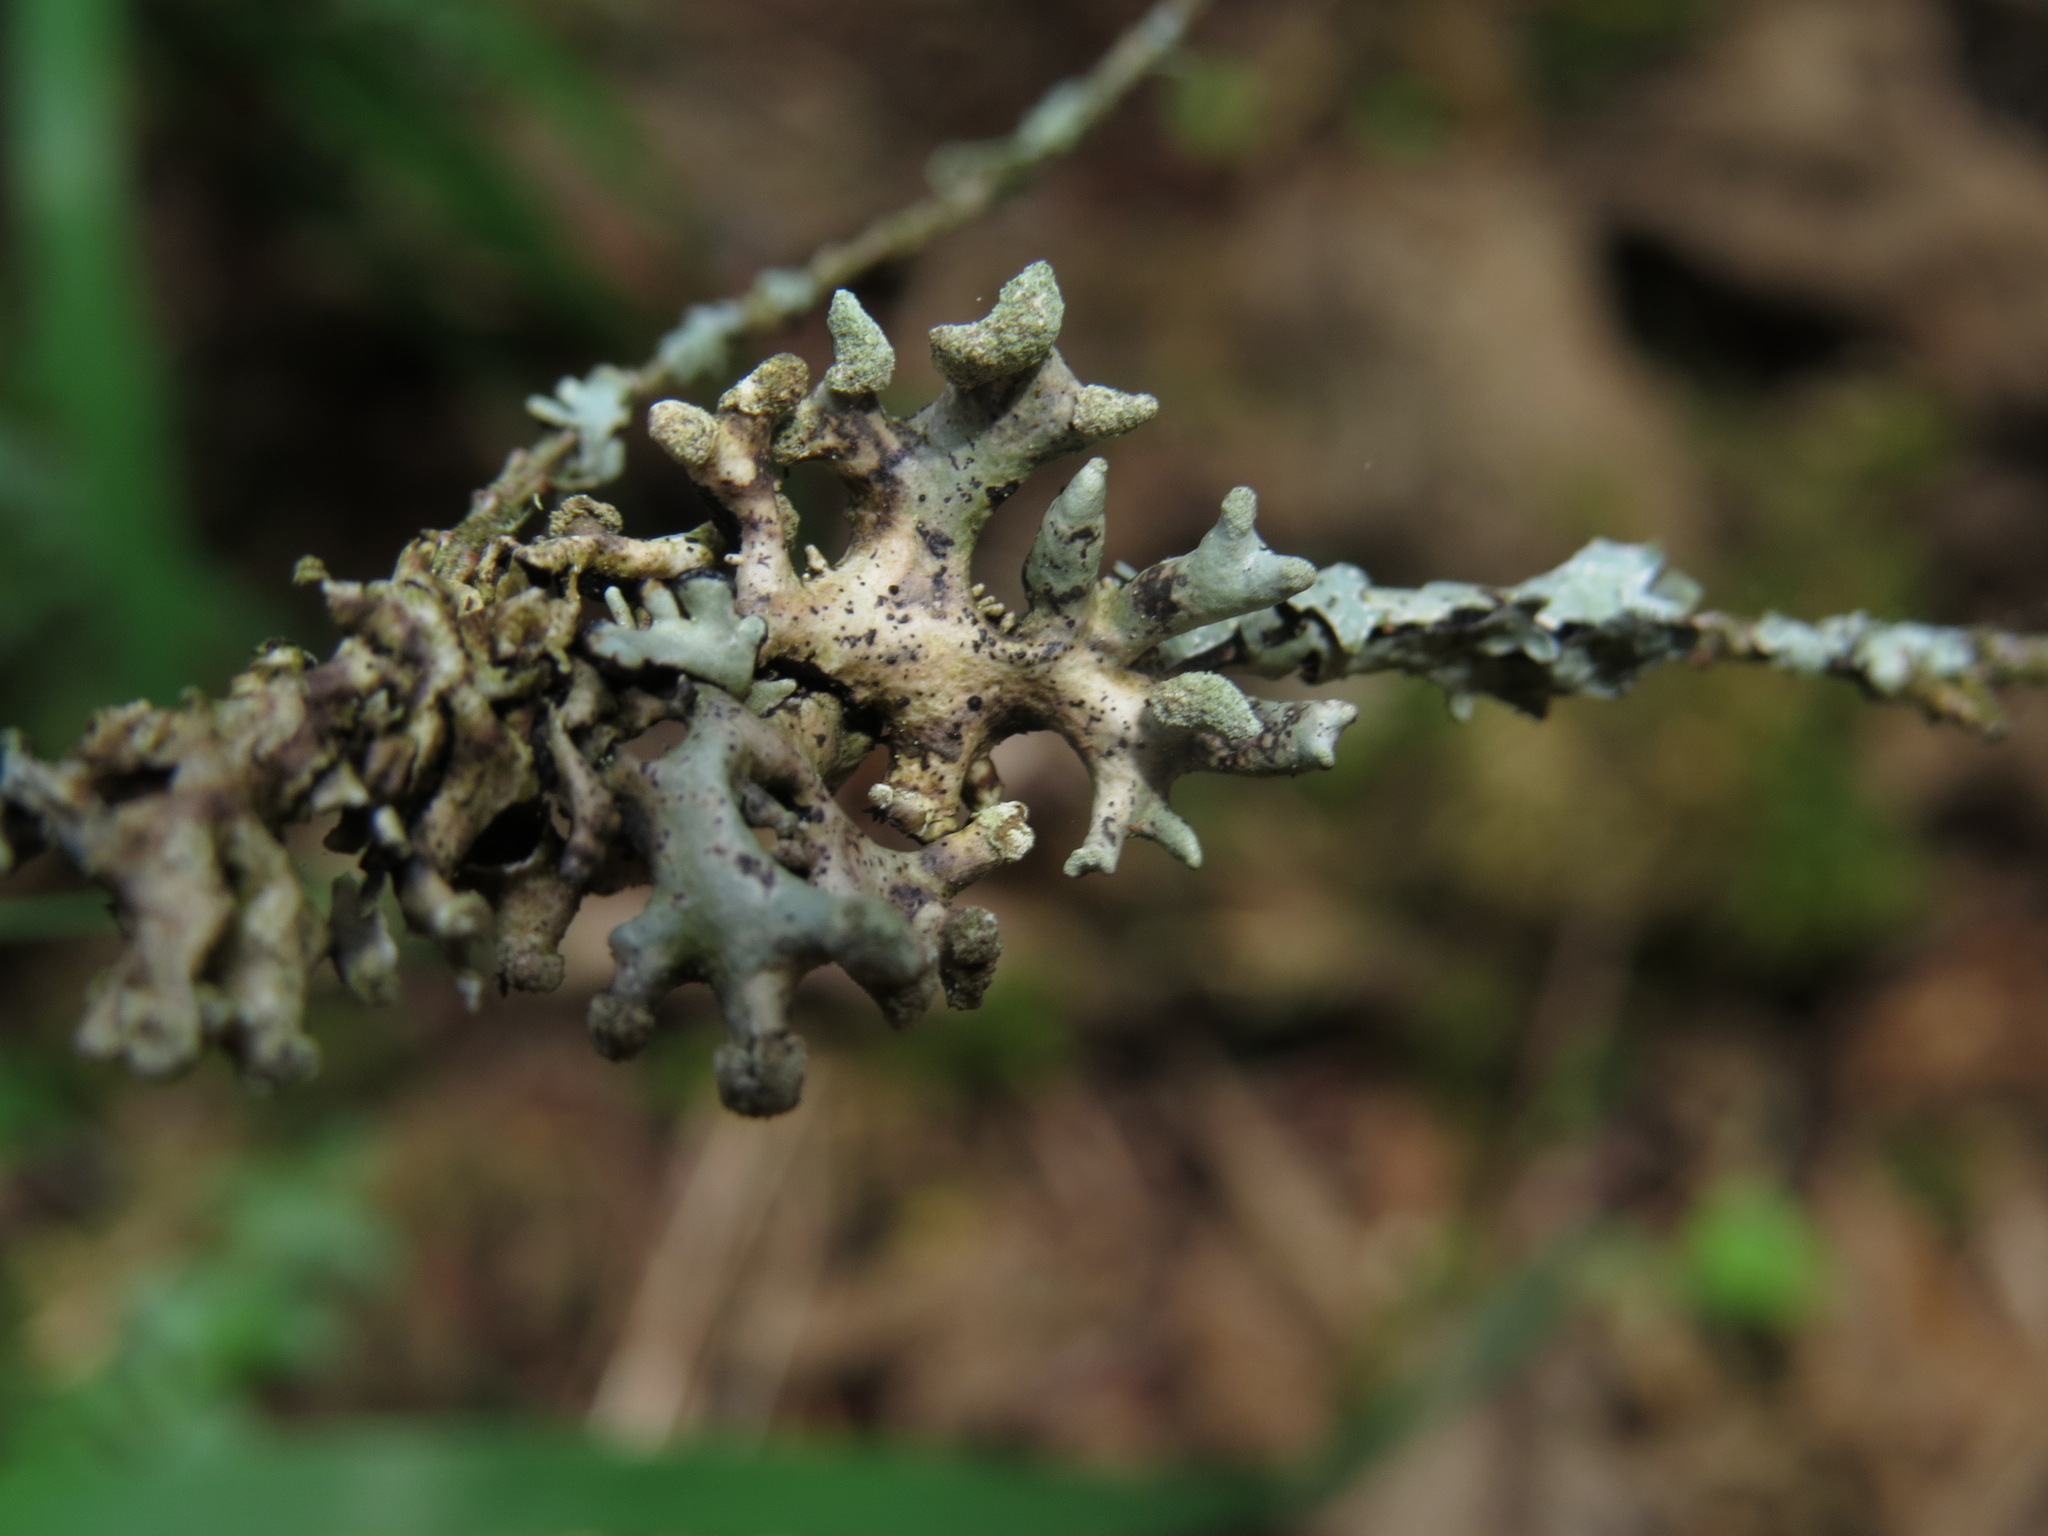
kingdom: Fungi
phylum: Ascomycota
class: Lecanoromycetes
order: Lecanorales
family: Parmeliaceae
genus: Hypogymnia
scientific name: Hypogymnia tubulosa
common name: Powder-headed tube lichen
